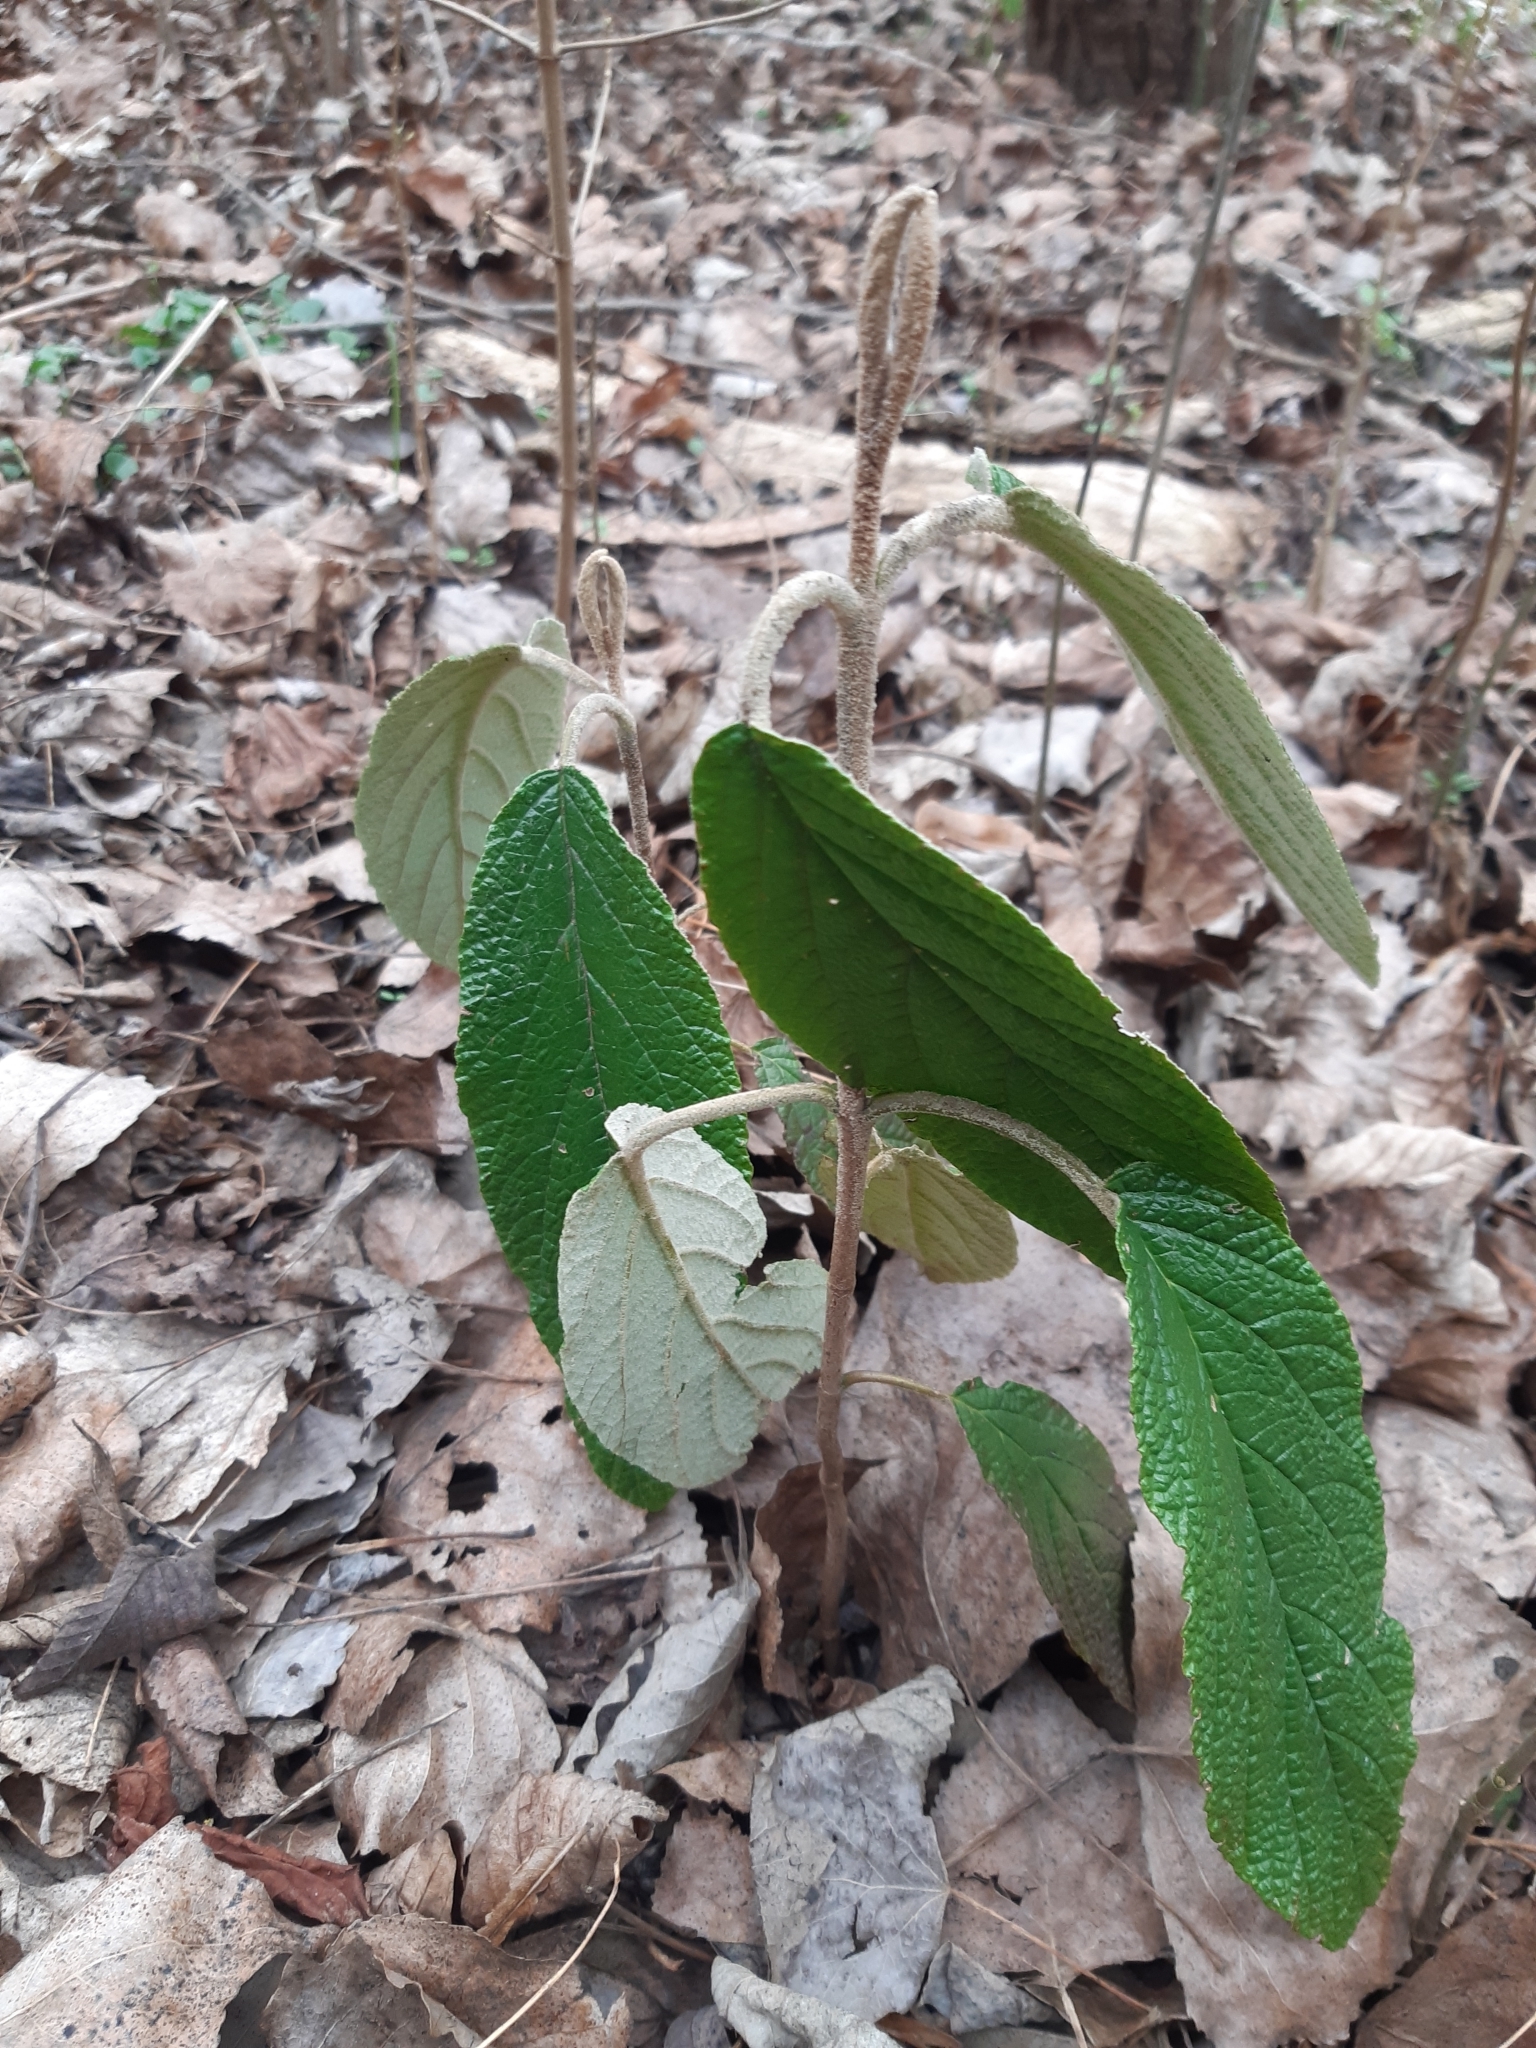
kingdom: Plantae
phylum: Tracheophyta
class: Magnoliopsida
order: Dipsacales
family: Viburnaceae
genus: Viburnum
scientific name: Viburnum rhytidophyllum
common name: Wrinkled viburnum
